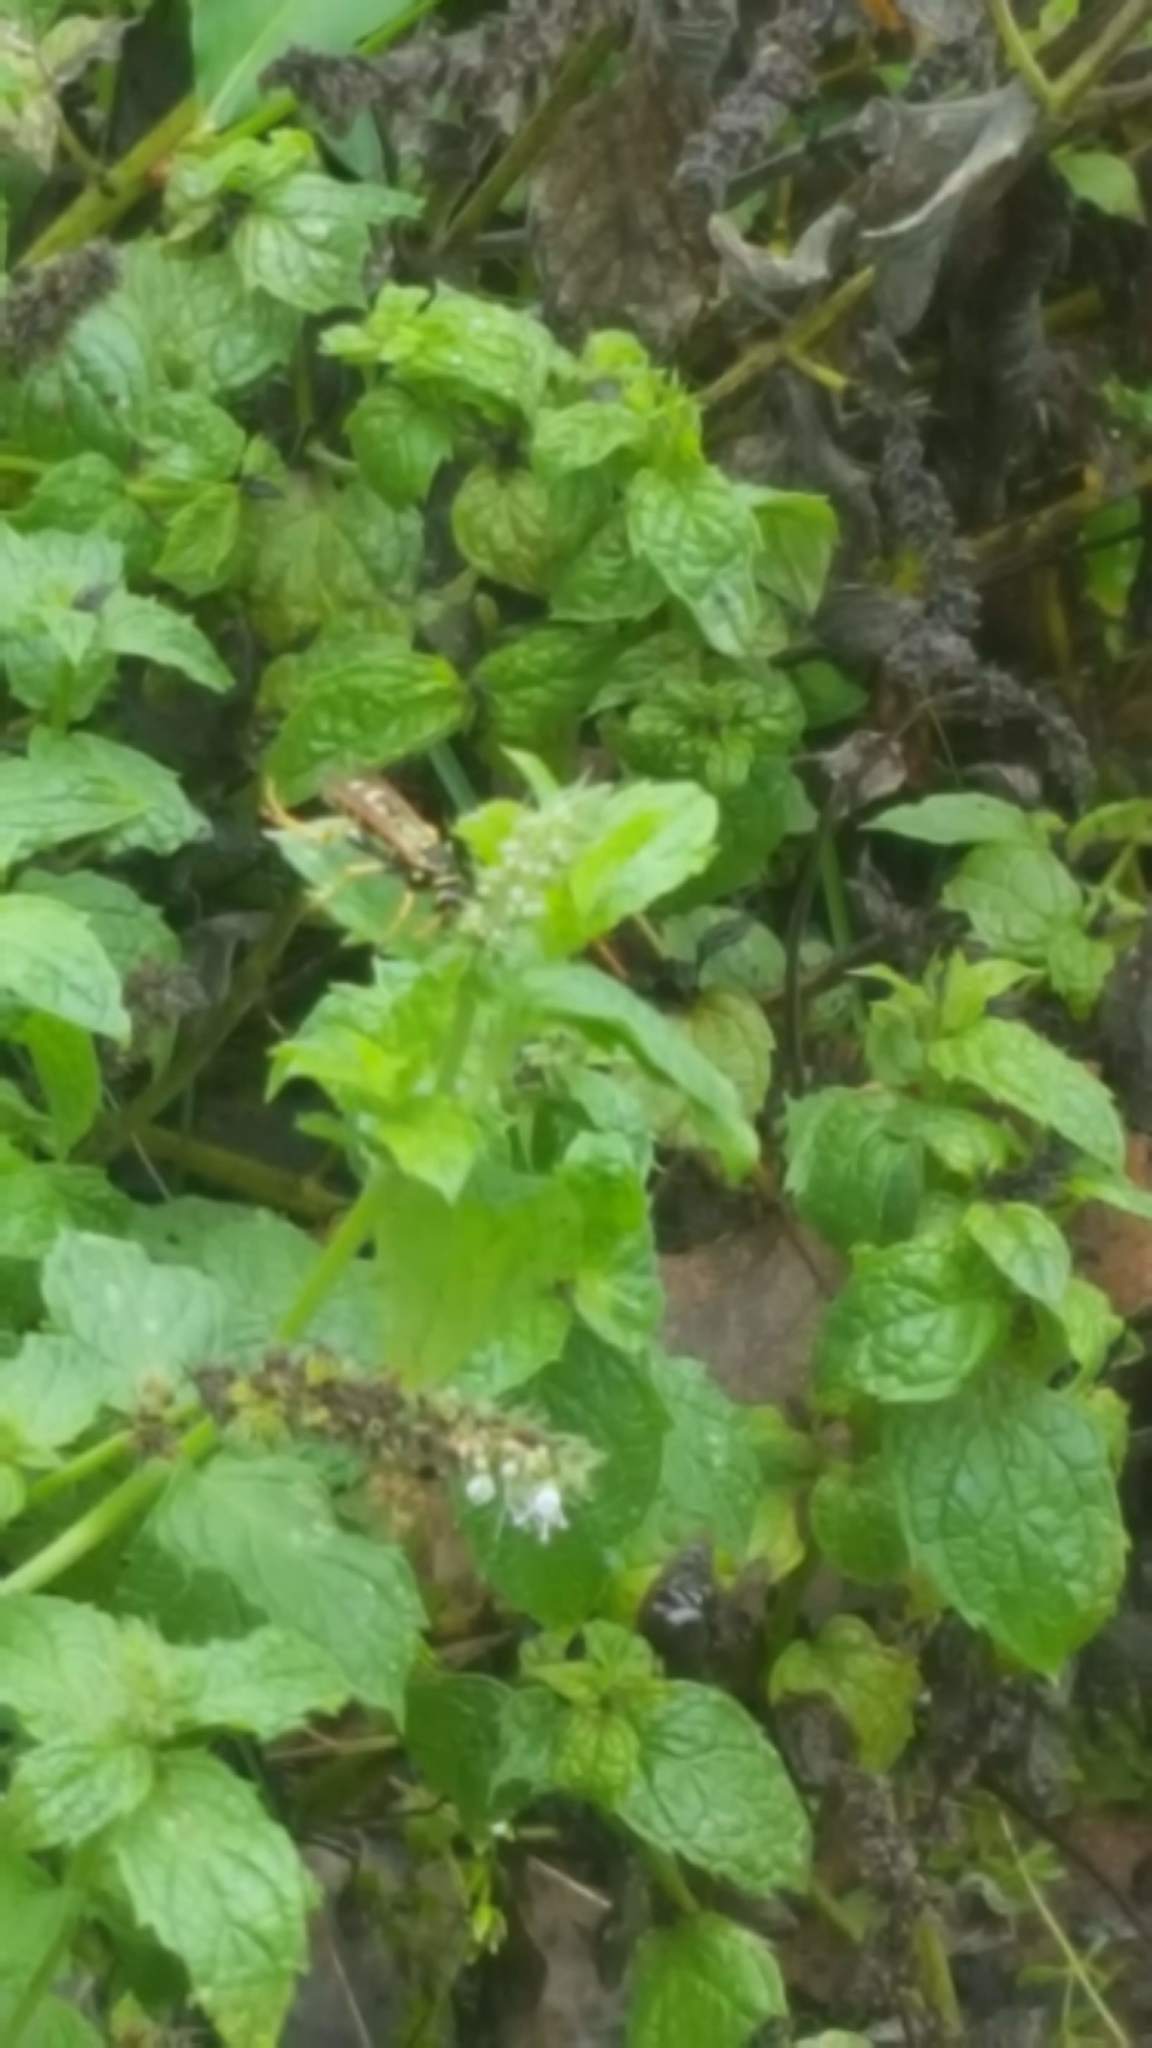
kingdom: Animalia
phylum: Arthropoda
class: Insecta
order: Hymenoptera
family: Eumenidae
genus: Polistes
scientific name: Polistes dominula
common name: Paper wasp
